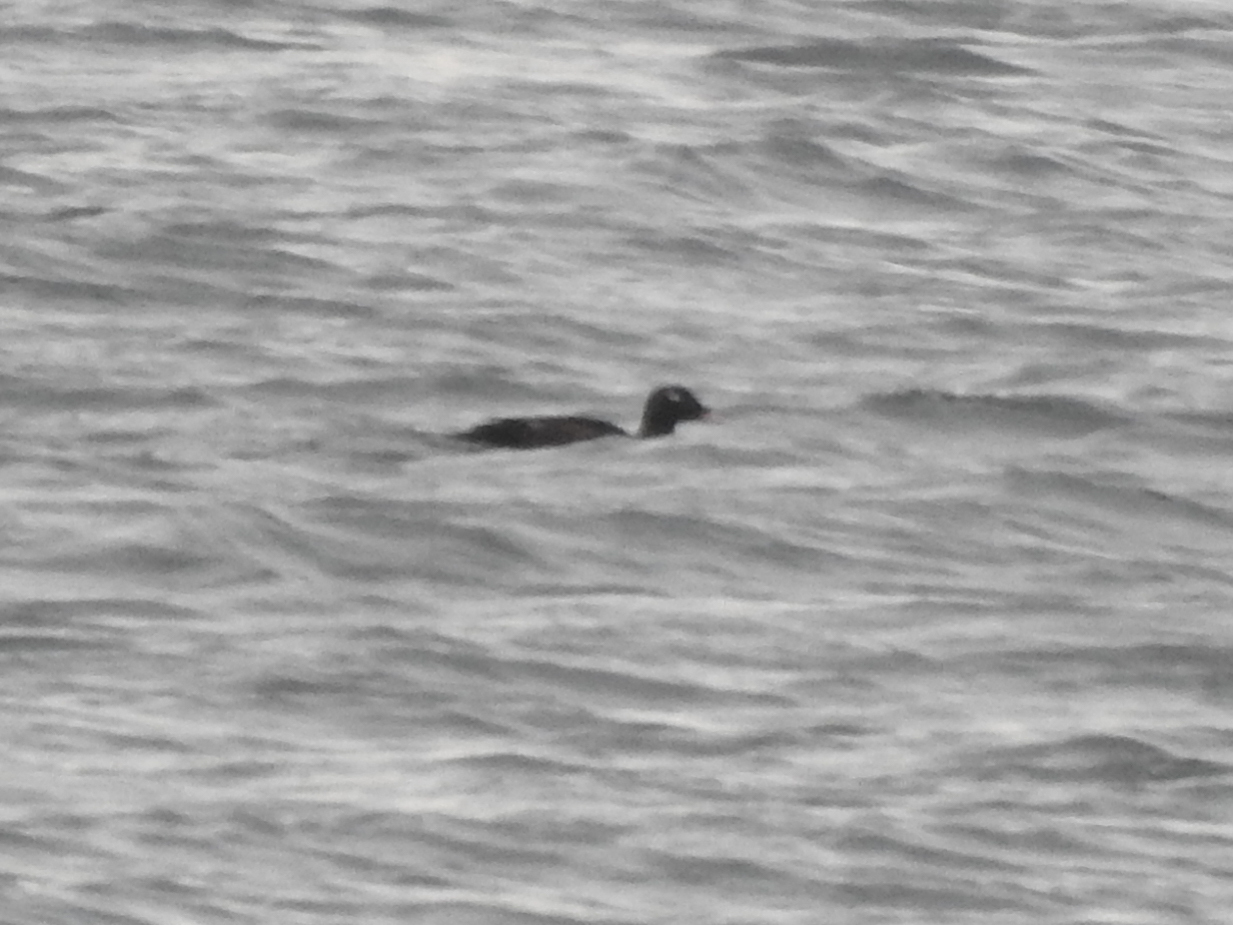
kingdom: Animalia
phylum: Chordata
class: Aves
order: Anseriformes
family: Anatidae
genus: Melanitta
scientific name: Melanitta deglandi
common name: White-winged scoter
